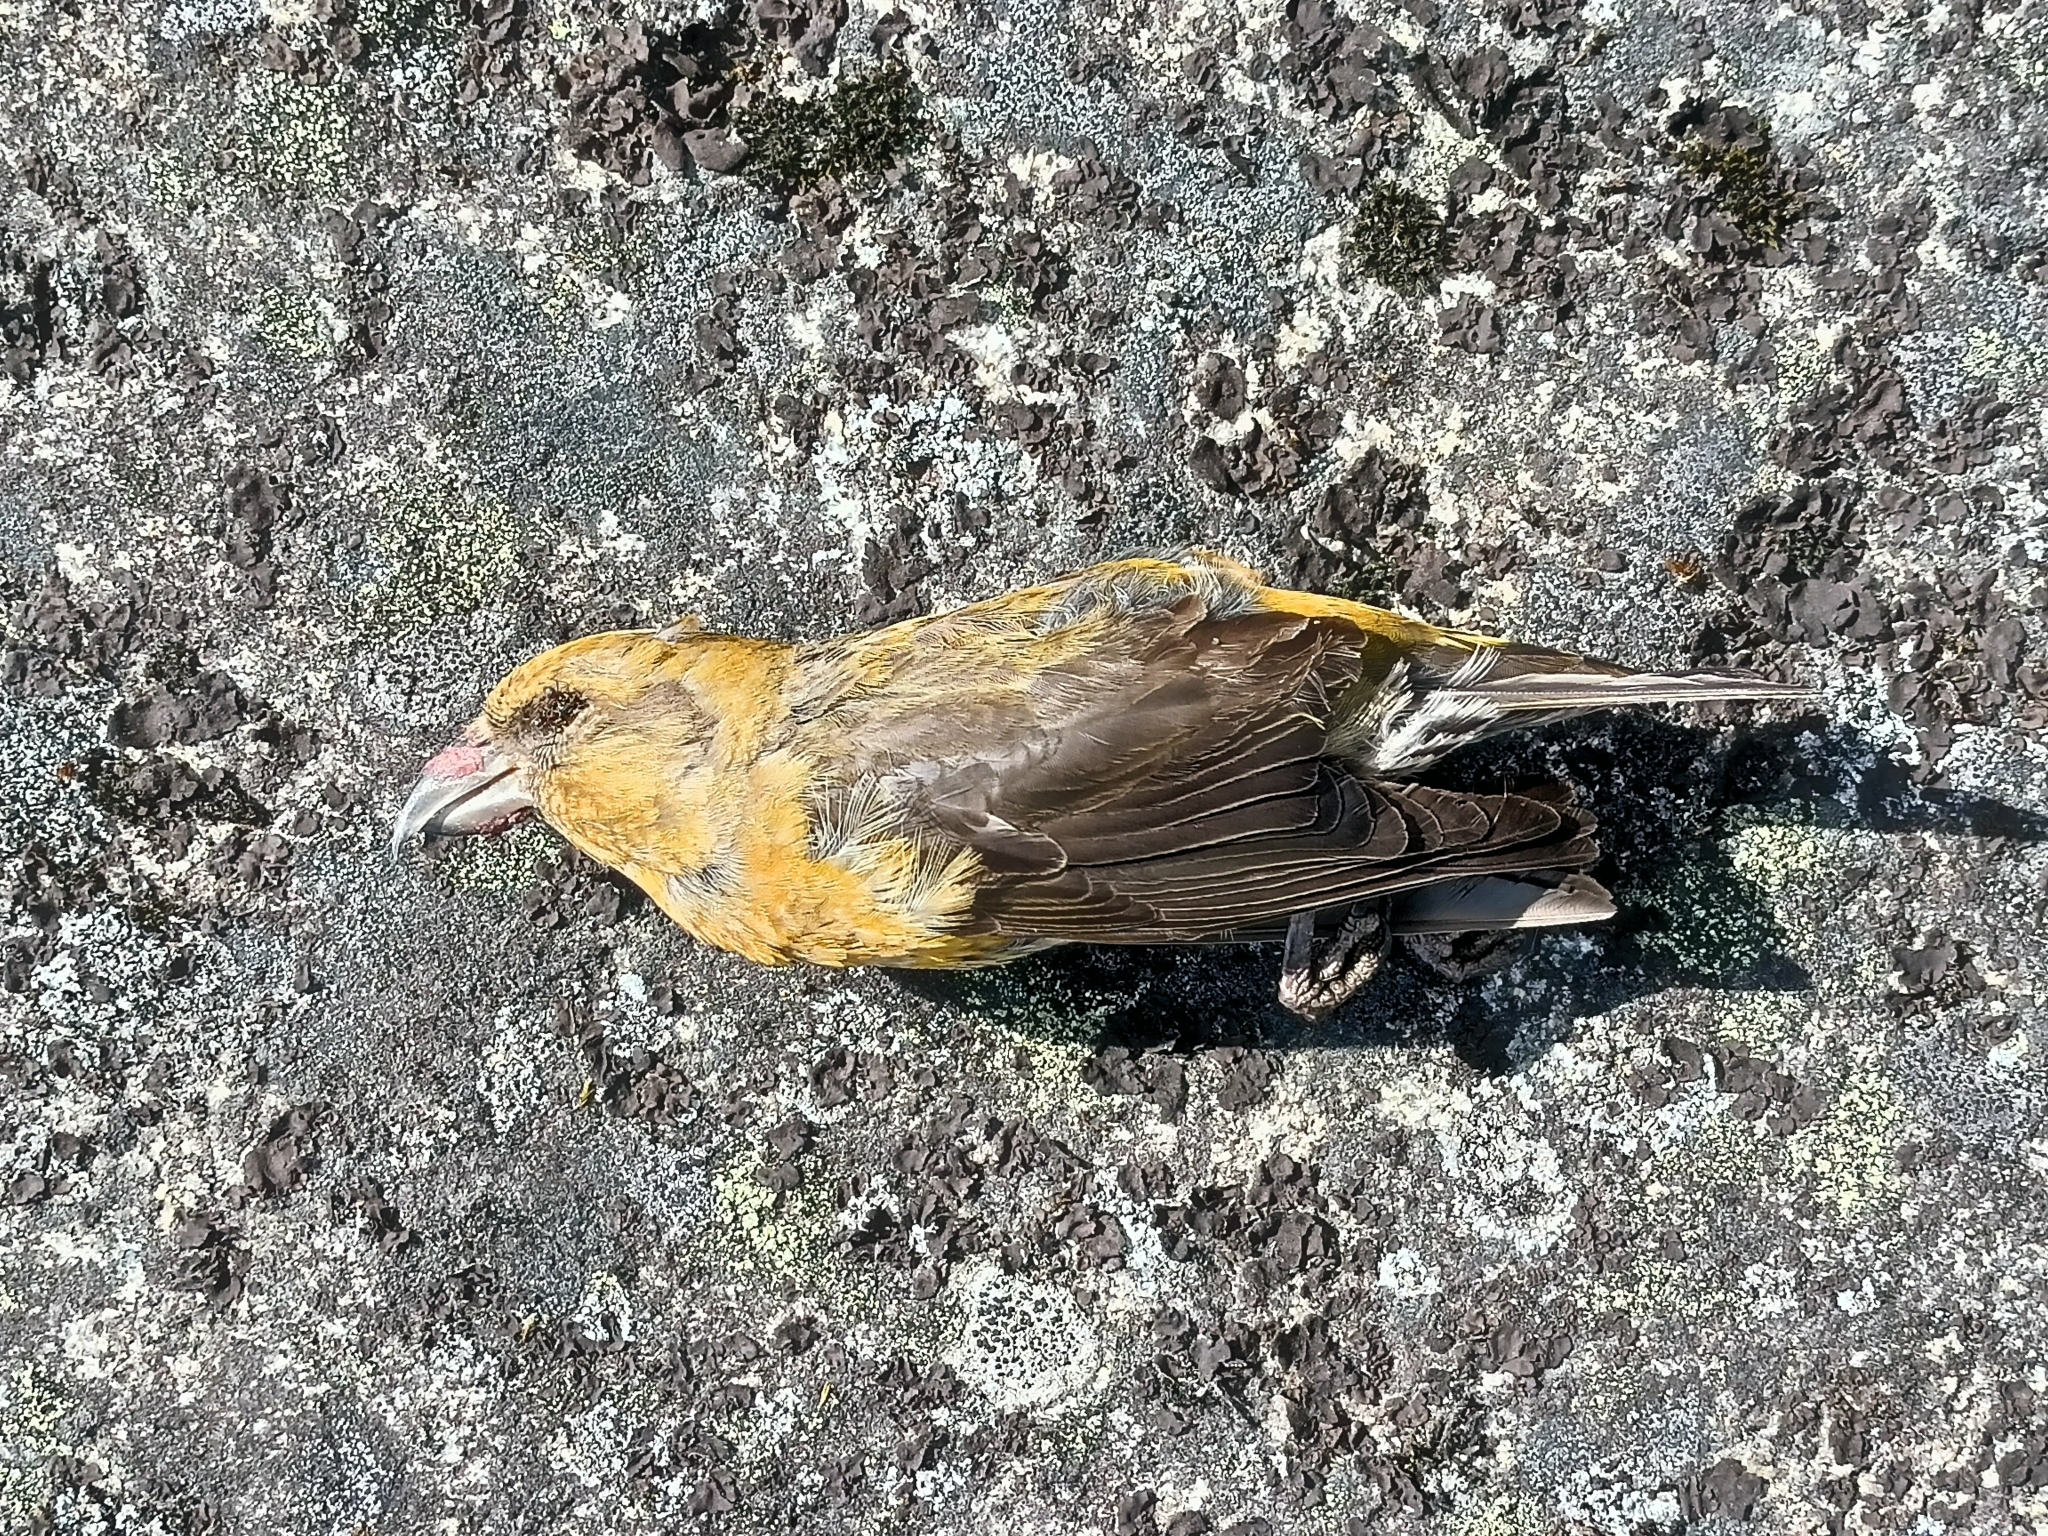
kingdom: Animalia
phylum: Chordata
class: Aves
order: Passeriformes
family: Fringillidae
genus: Loxia
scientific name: Loxia curvirostra
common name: Red crossbill
